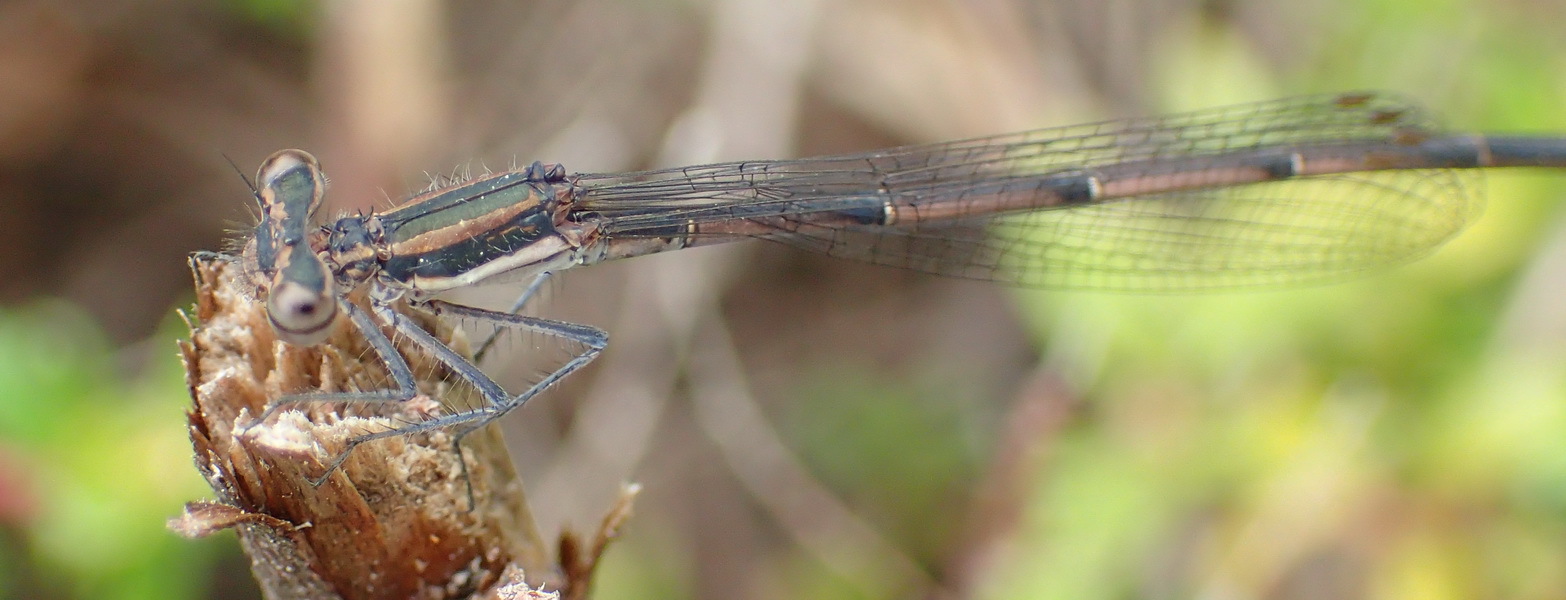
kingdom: Animalia
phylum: Arthropoda
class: Insecta
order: Odonata
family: Platycnemididae
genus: Elattoneura
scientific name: Elattoneura frenulata
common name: Sooty threadtail
